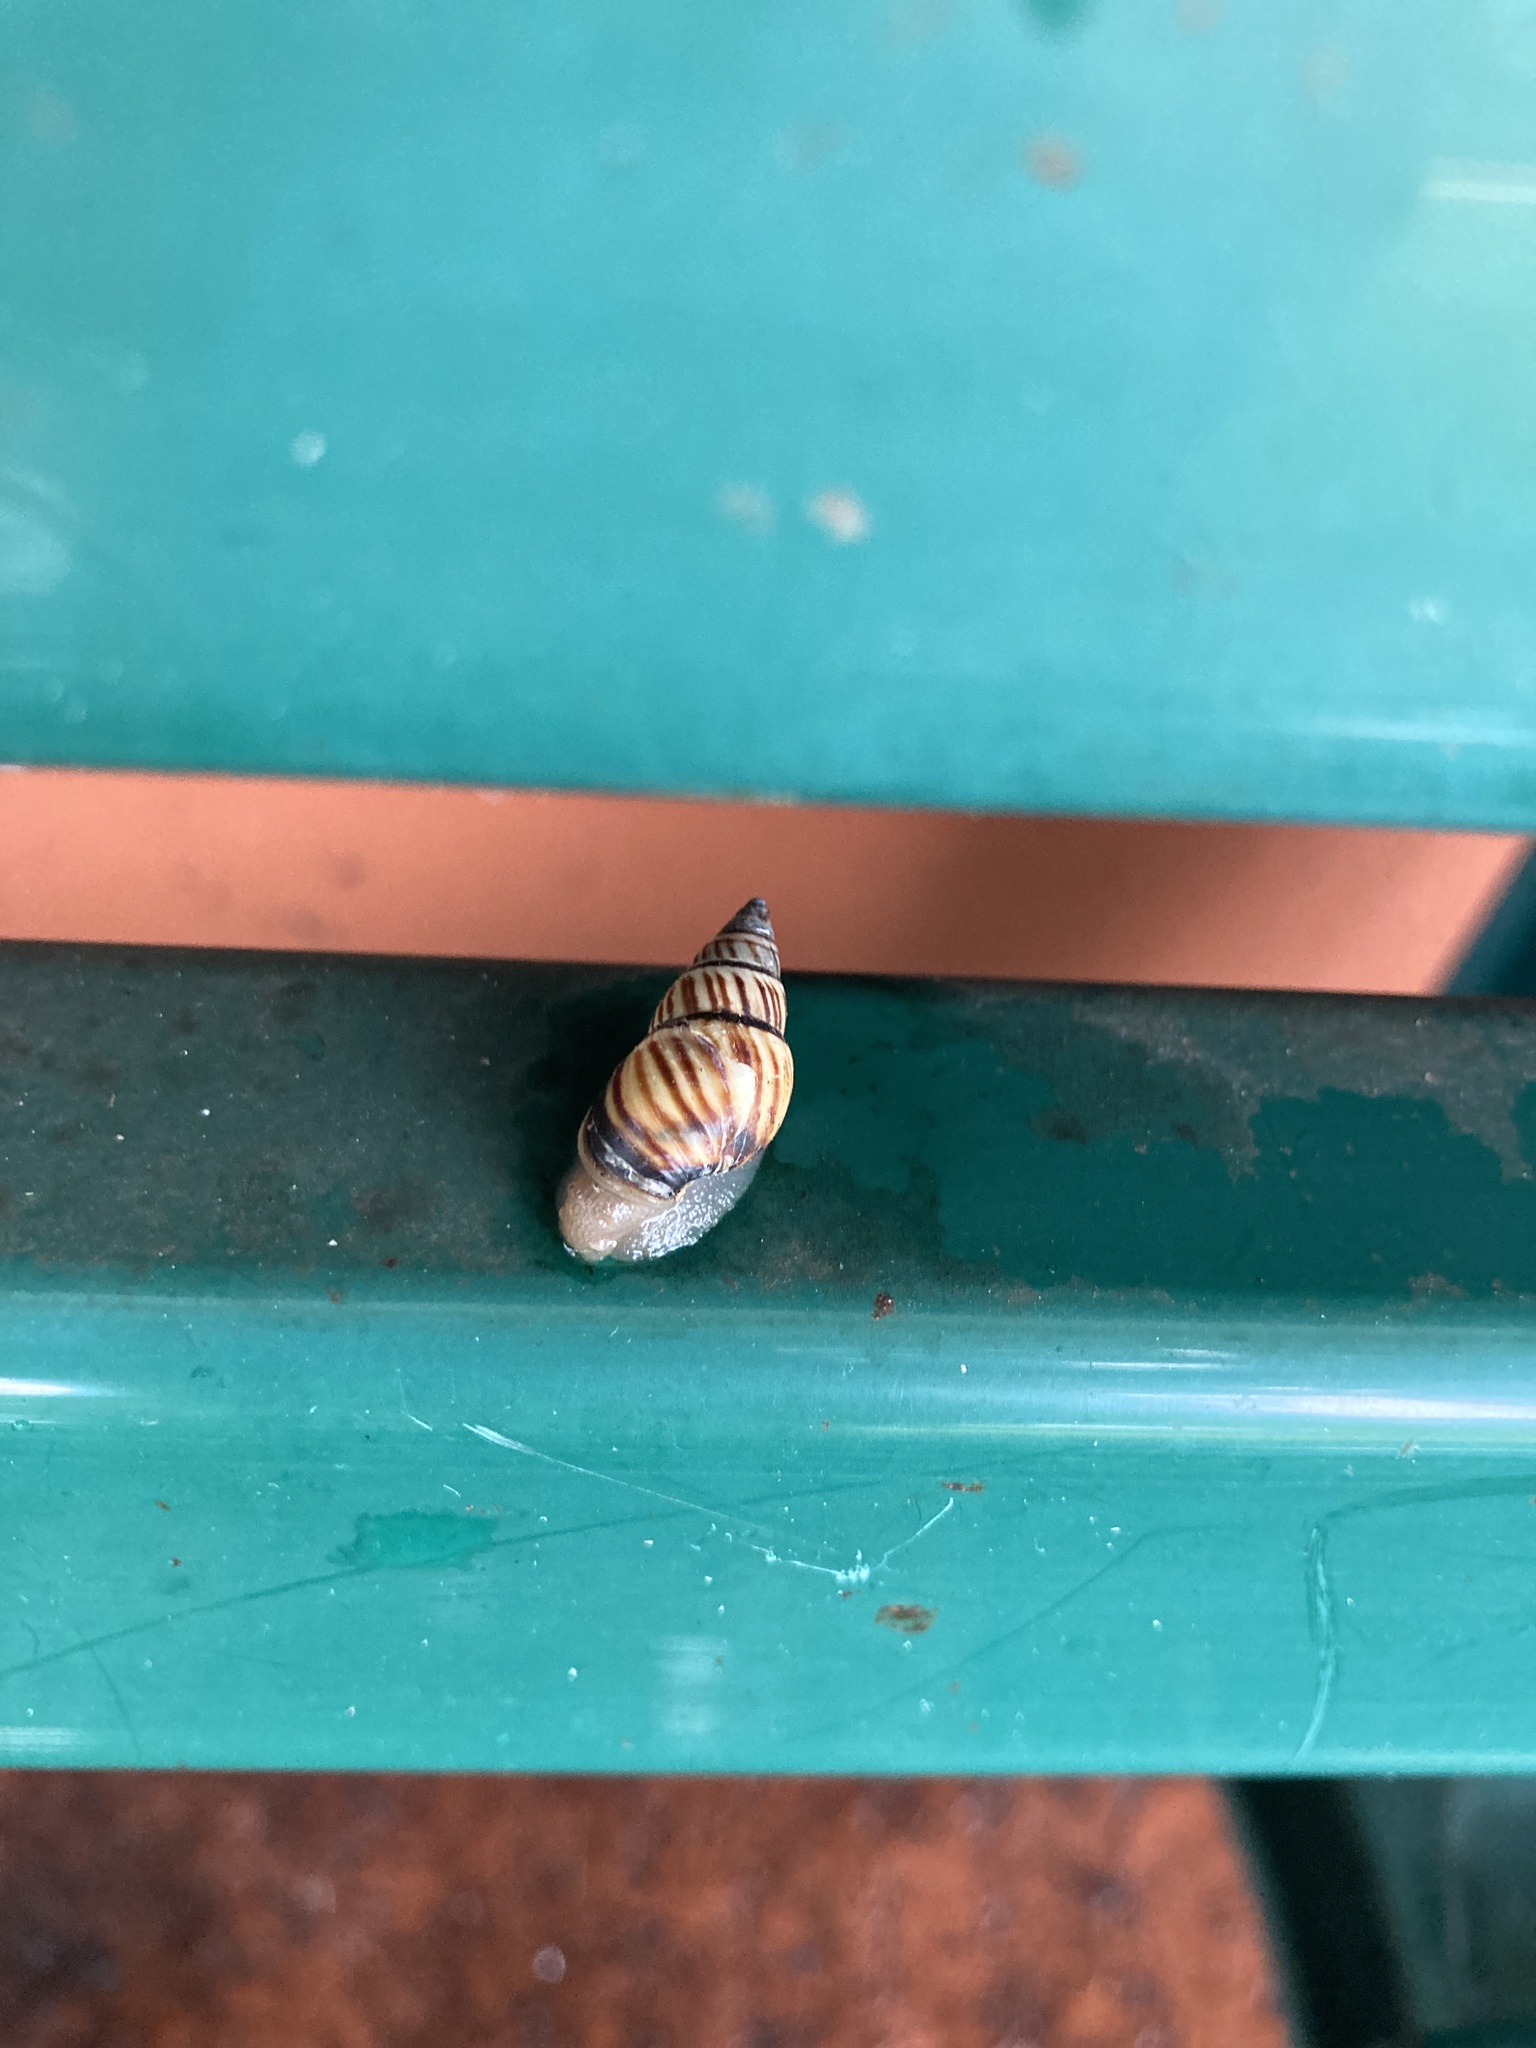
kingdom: Animalia
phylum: Mollusca
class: Gastropoda
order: Stylommatophora
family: Bulimulidae
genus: Drymaeus
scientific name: Drymaeus
